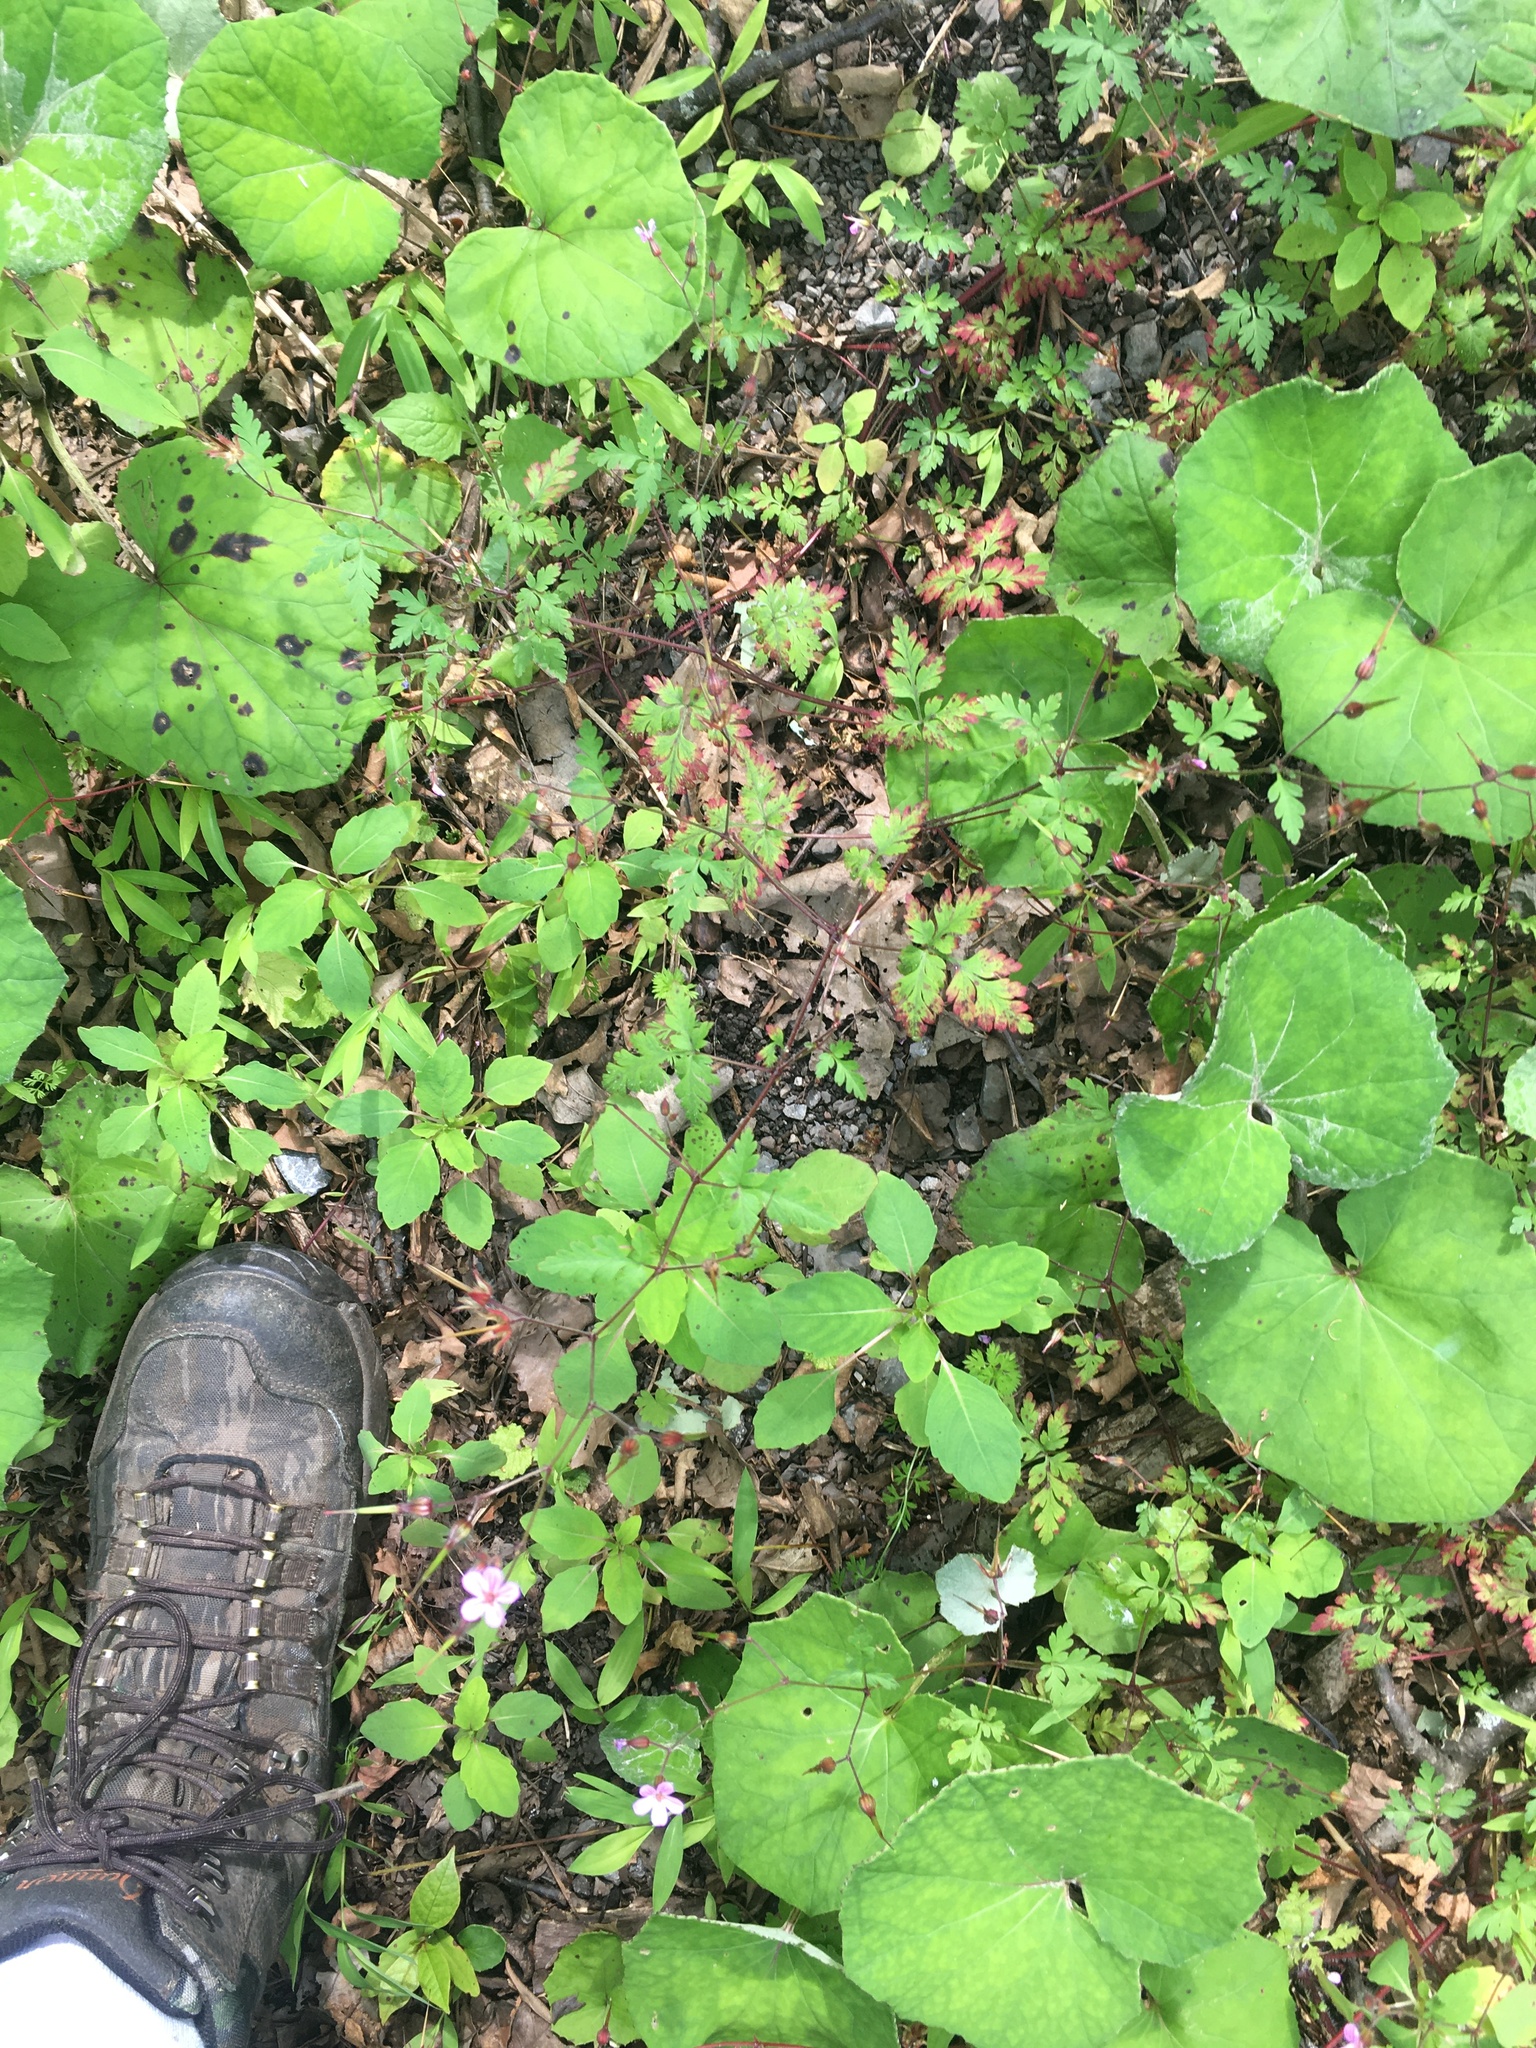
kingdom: Plantae
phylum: Tracheophyta
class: Magnoliopsida
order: Geraniales
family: Geraniaceae
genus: Geranium
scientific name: Geranium robertianum
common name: Herb-robert
